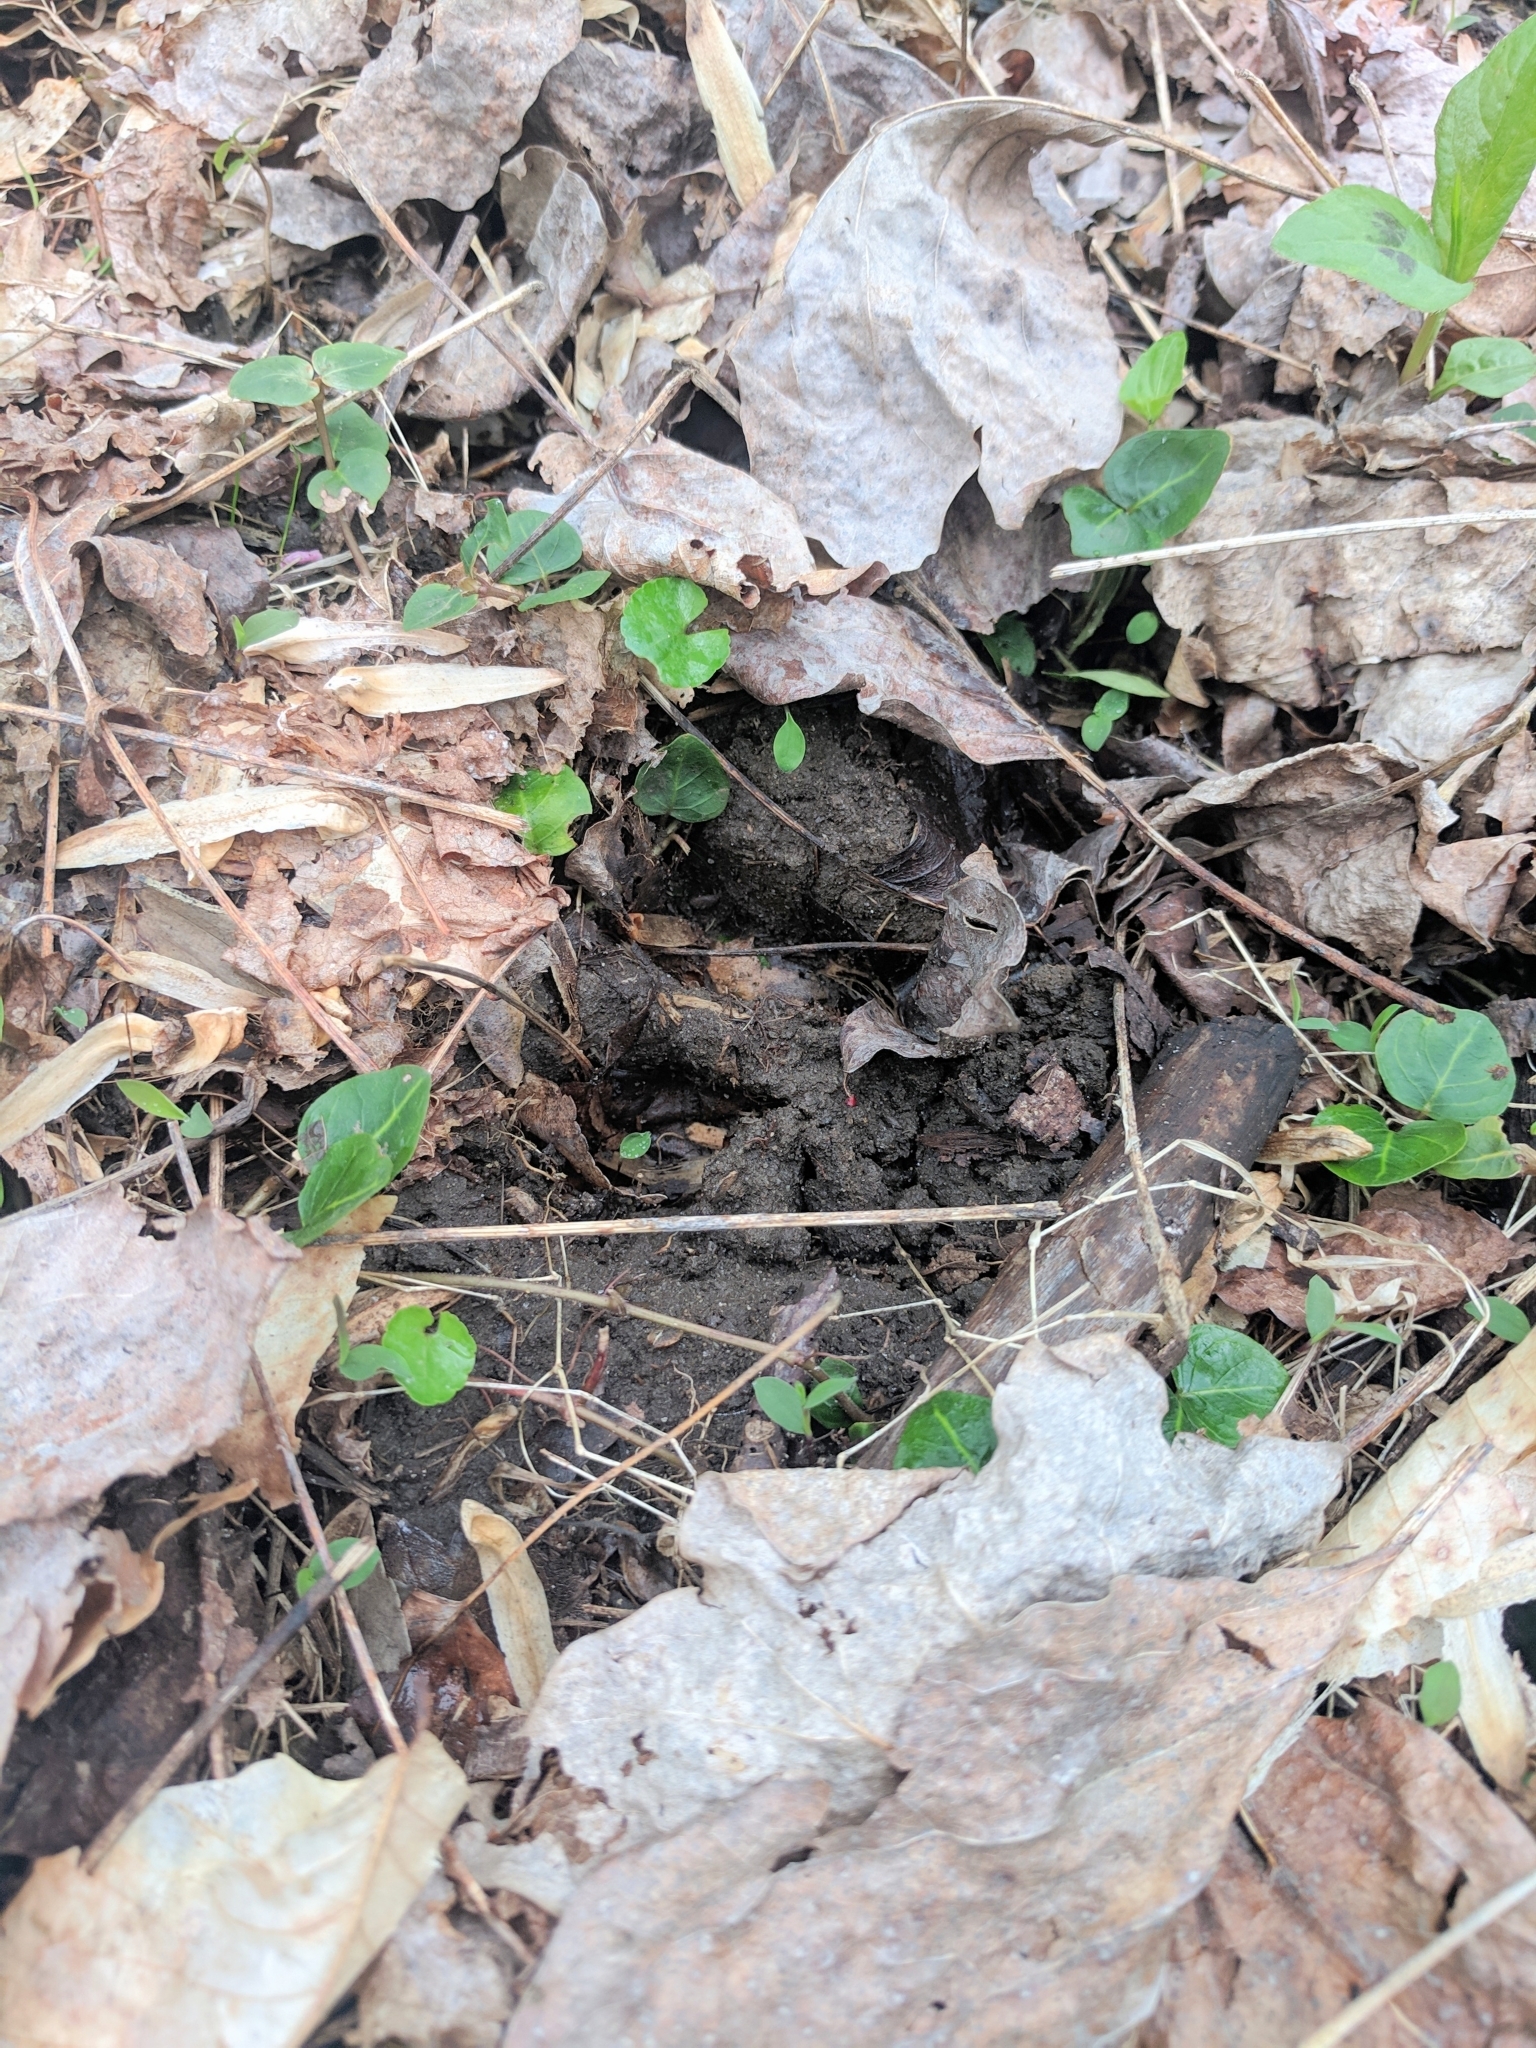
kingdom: Animalia
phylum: Chordata
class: Mammalia
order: Artiodactyla
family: Cervidae
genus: Odocoileus
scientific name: Odocoileus virginianus
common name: White-tailed deer
